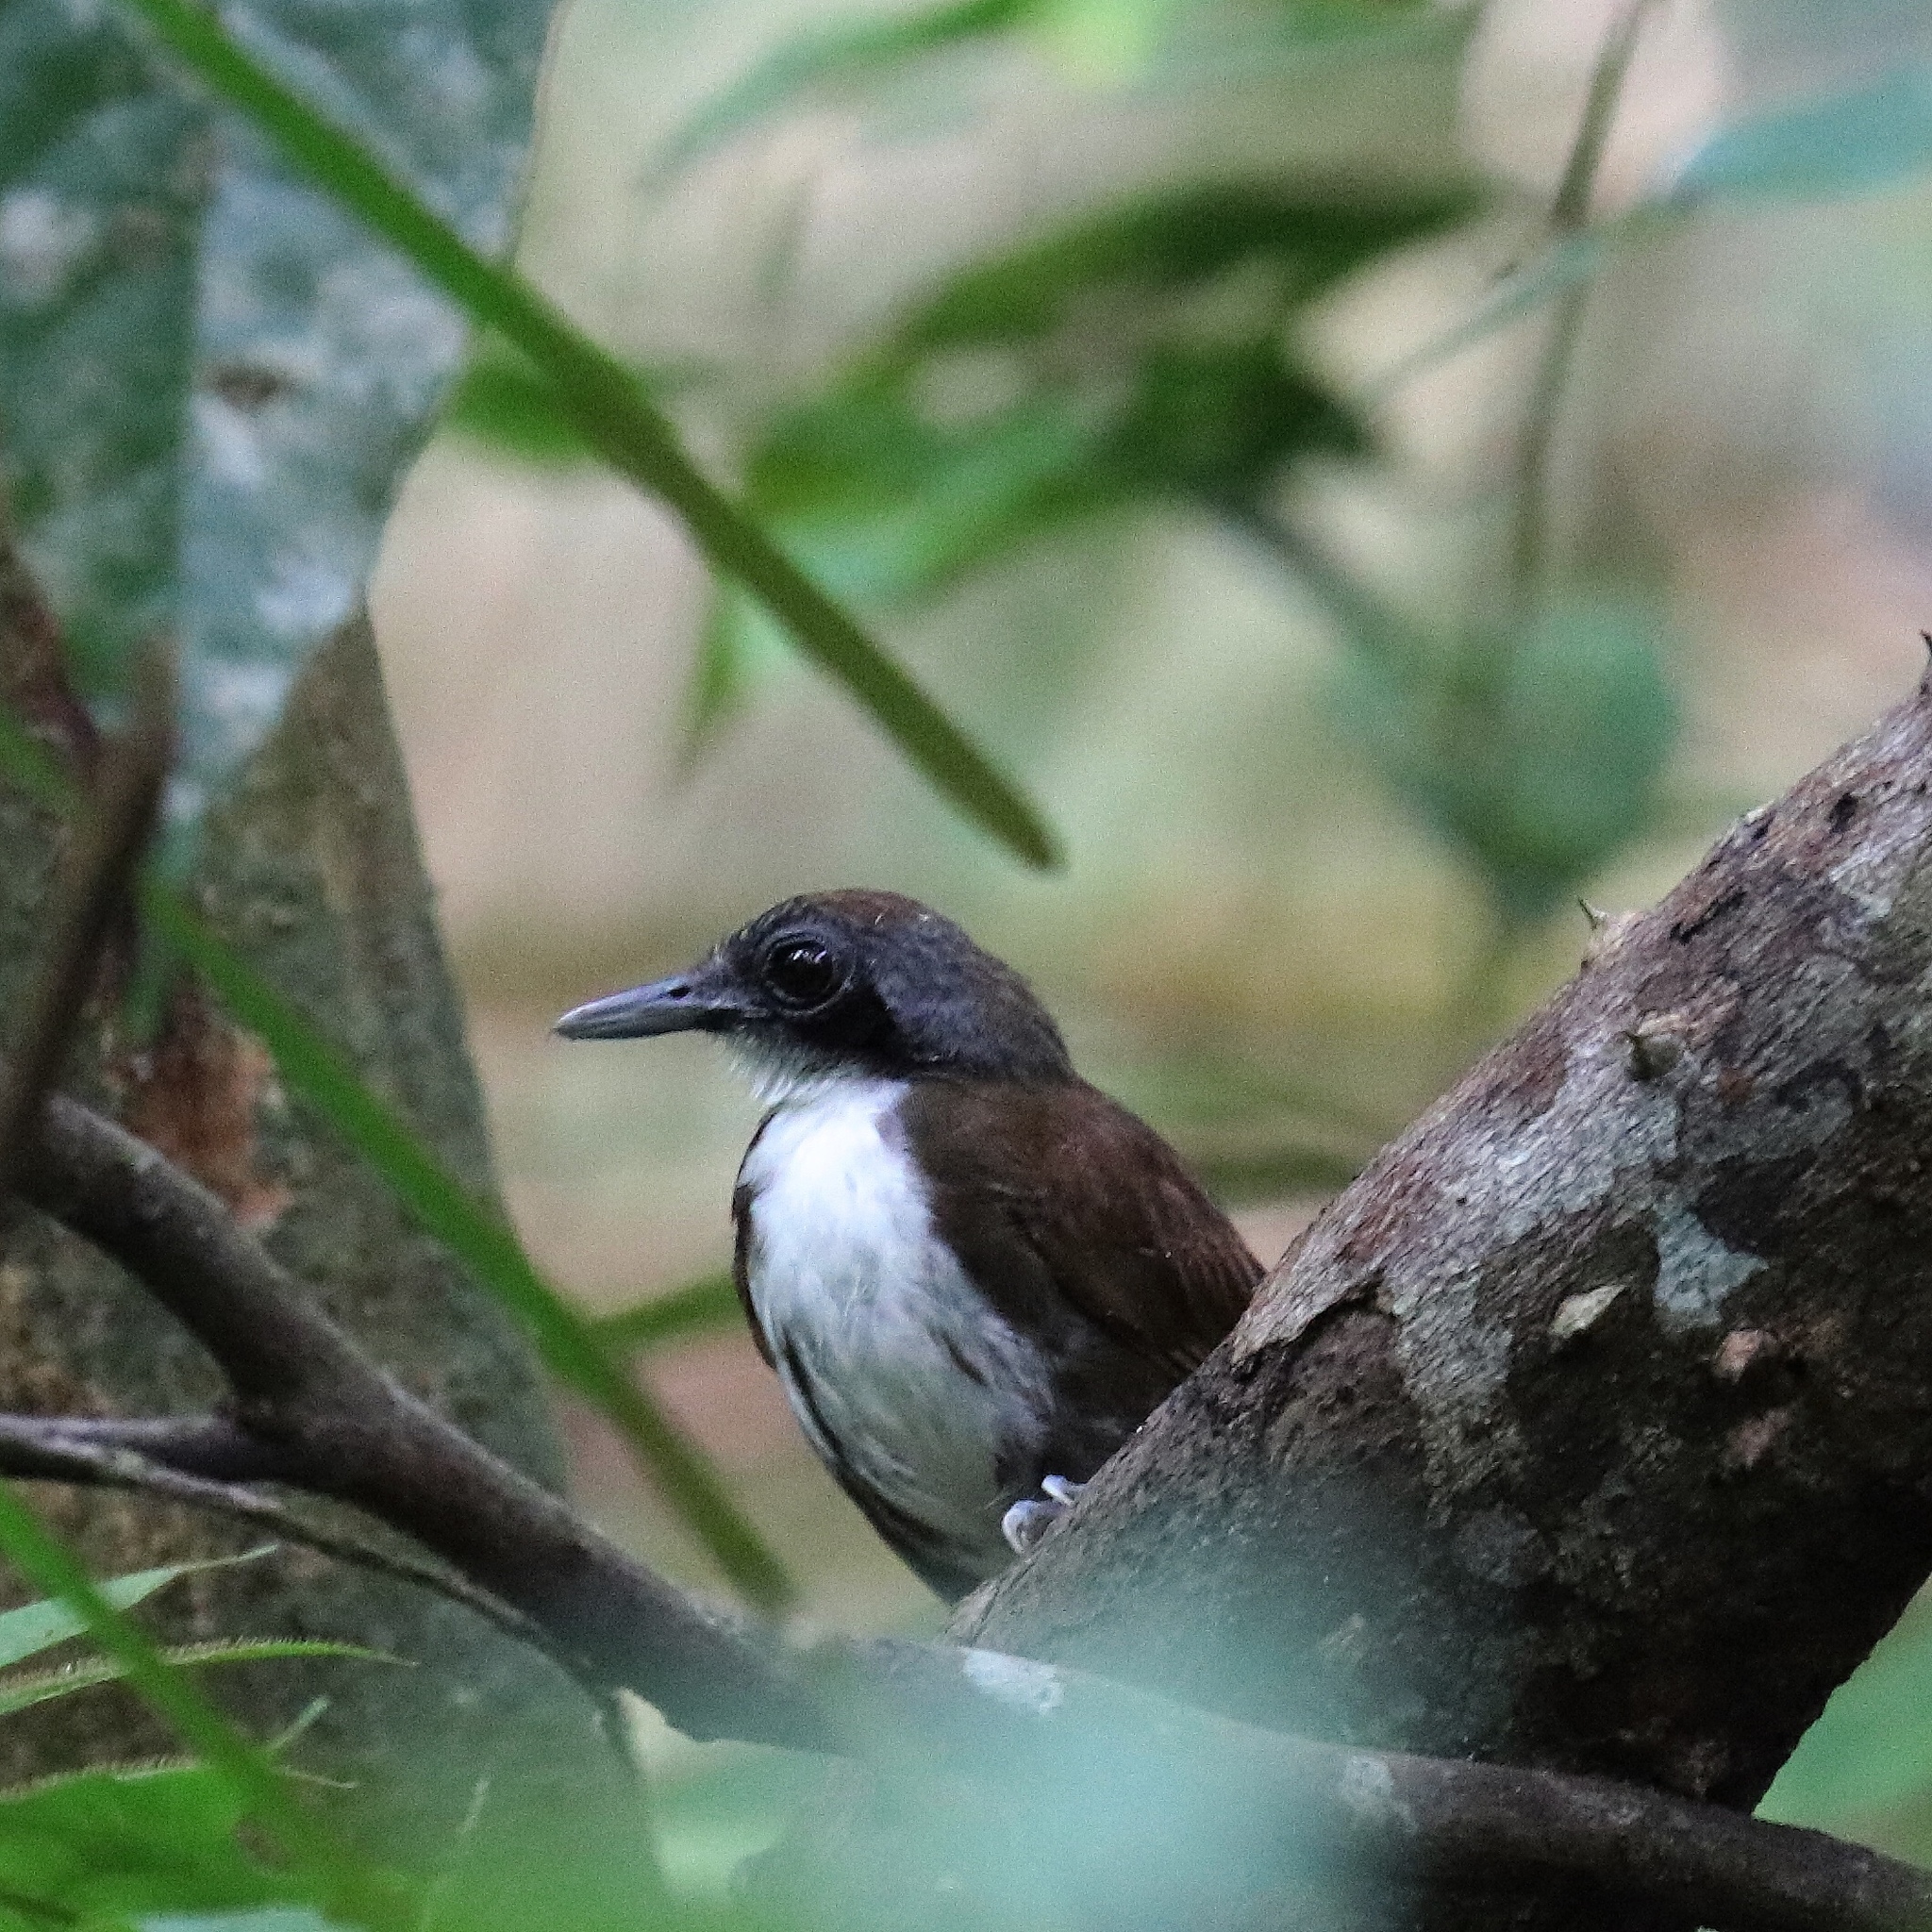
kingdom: Animalia
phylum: Chordata
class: Aves
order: Passeriformes
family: Thamnophilidae
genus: Gymnopithys
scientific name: Gymnopithys leucaspis
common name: White-cheeked antbird
